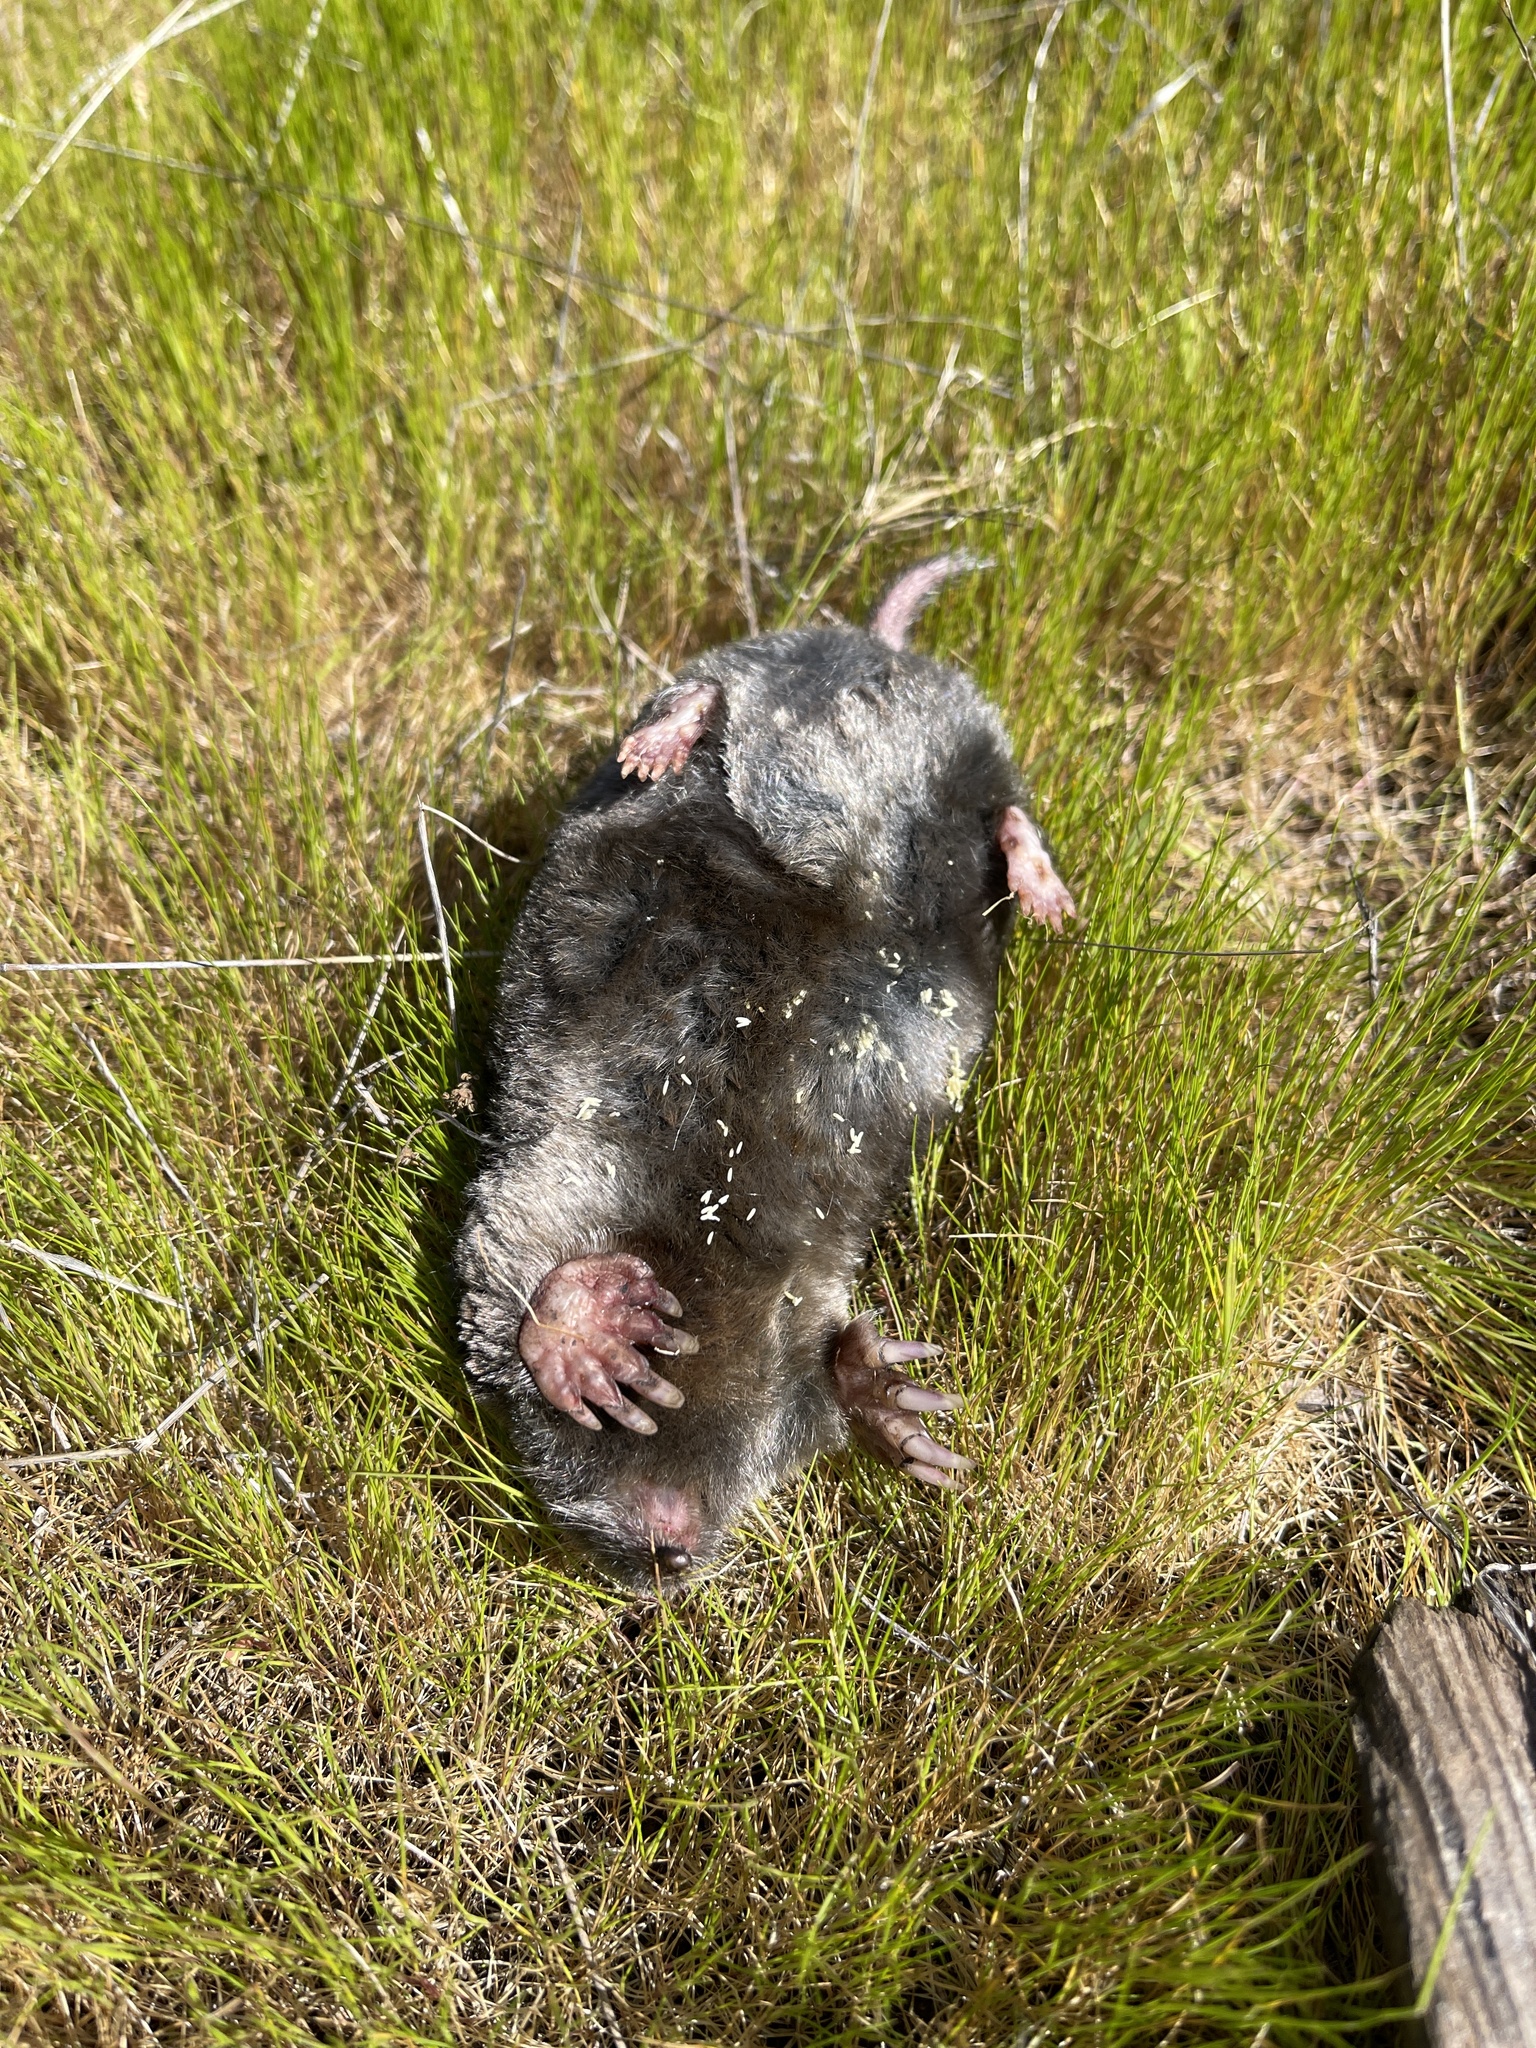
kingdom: Animalia
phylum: Chordata
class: Mammalia
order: Soricomorpha
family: Talpidae
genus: Scapanus
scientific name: Scapanus latimanus
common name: Broad-footed mole
